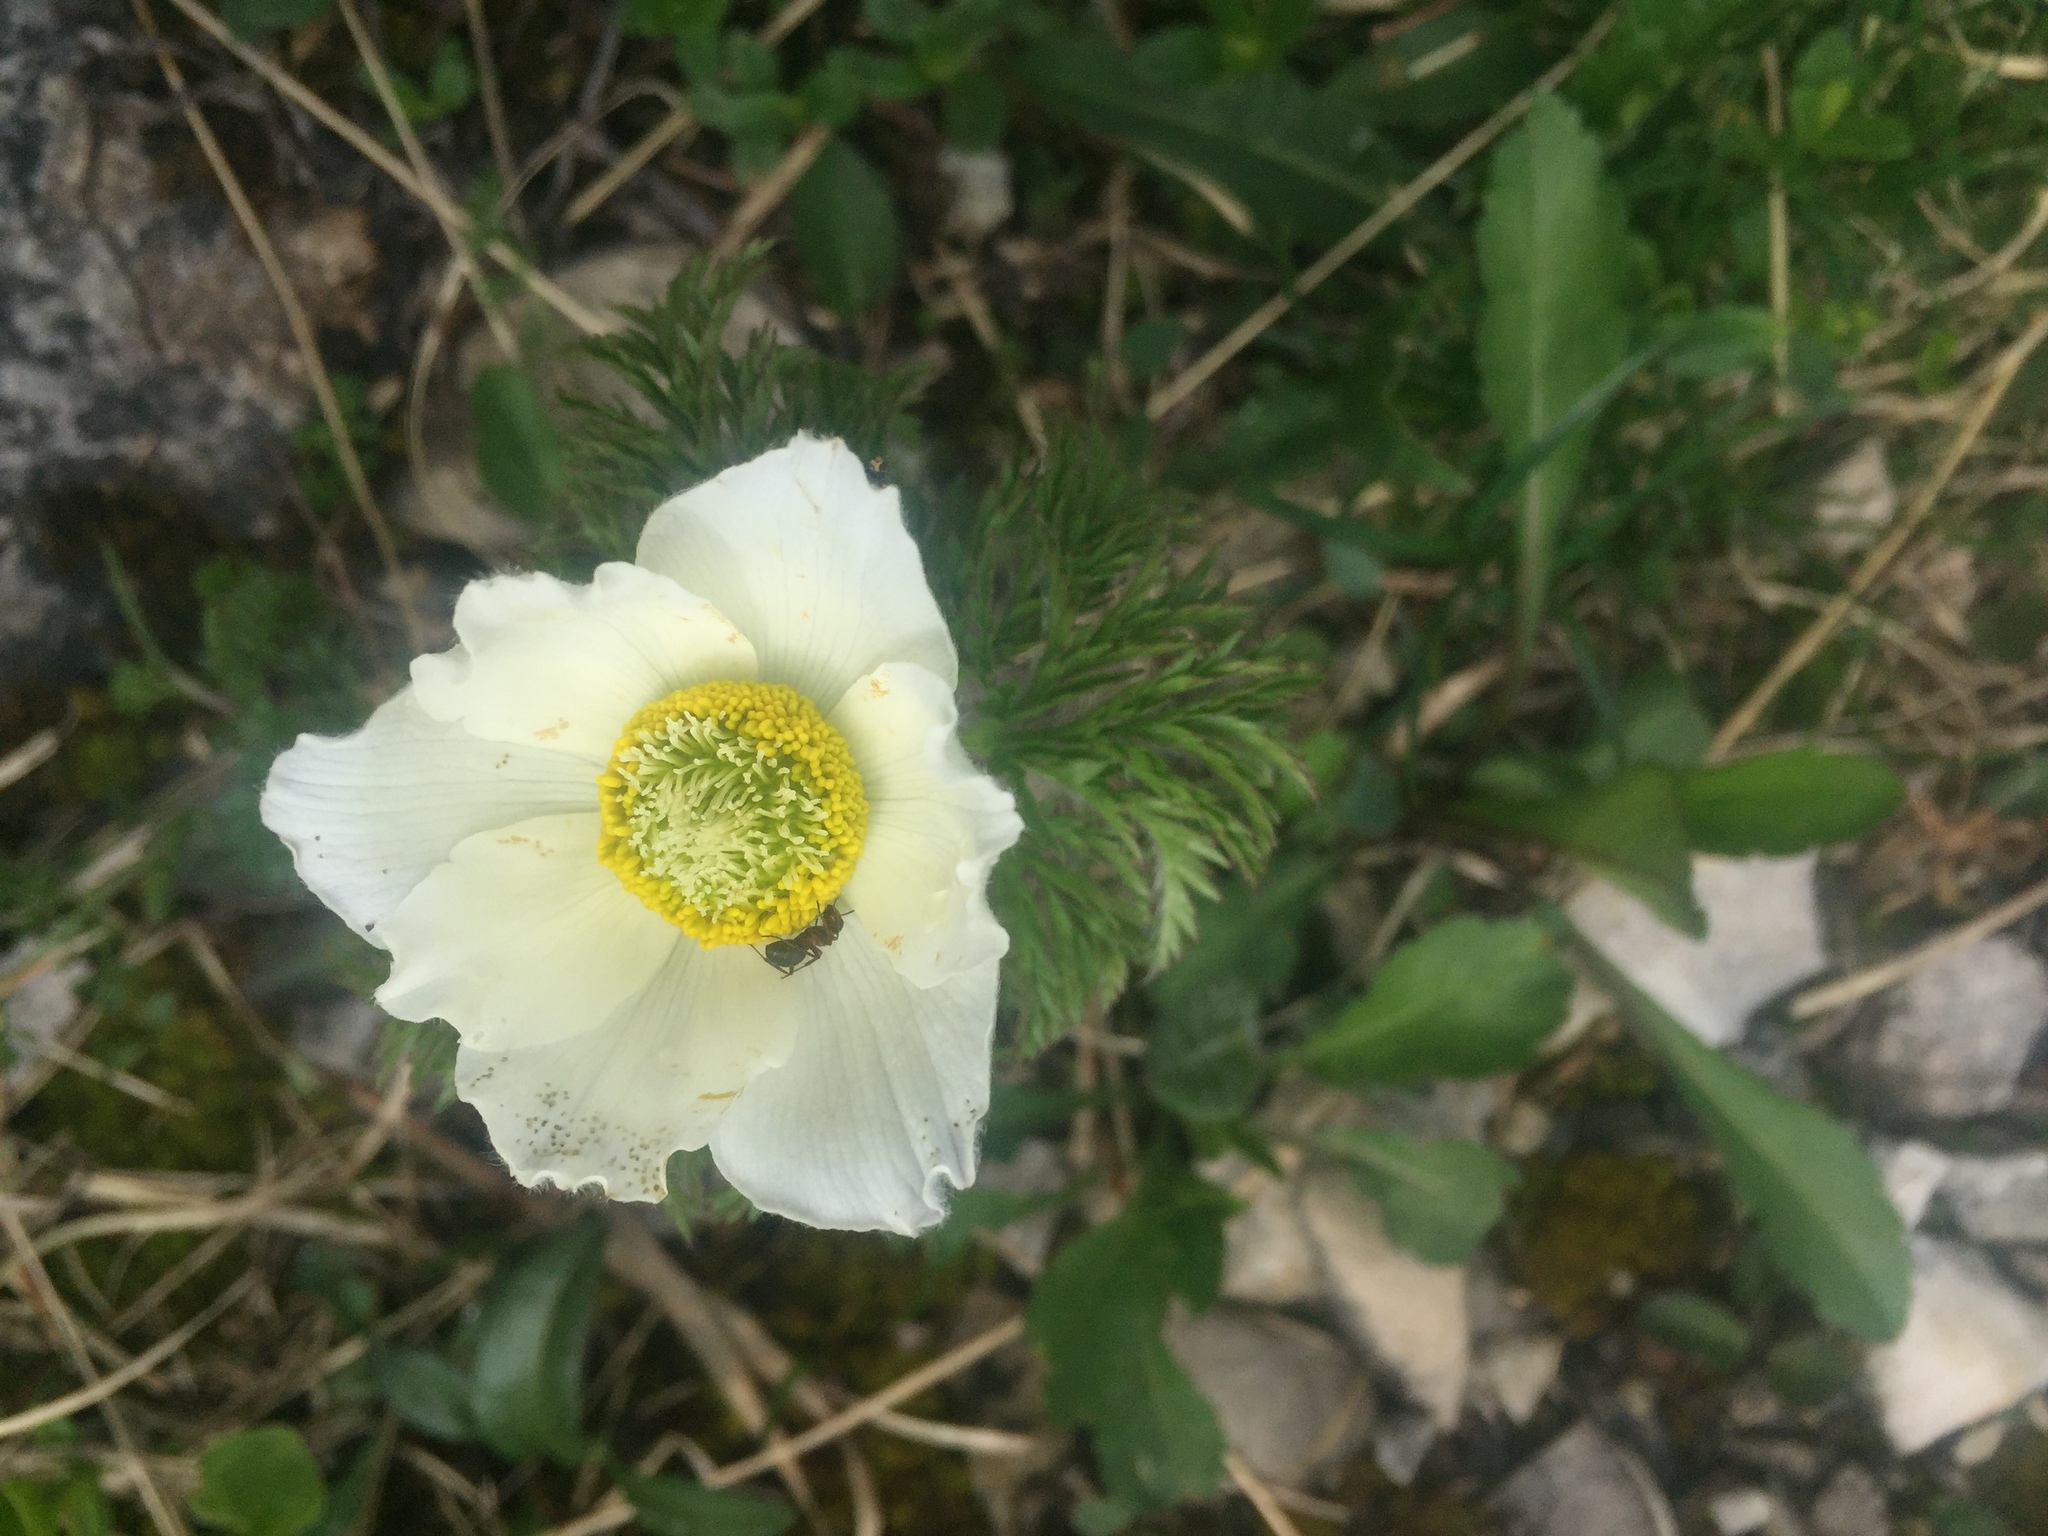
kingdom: Plantae
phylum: Tracheophyta
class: Magnoliopsida
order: Ranunculales
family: Ranunculaceae
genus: Pulsatilla
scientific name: Pulsatilla alpina
